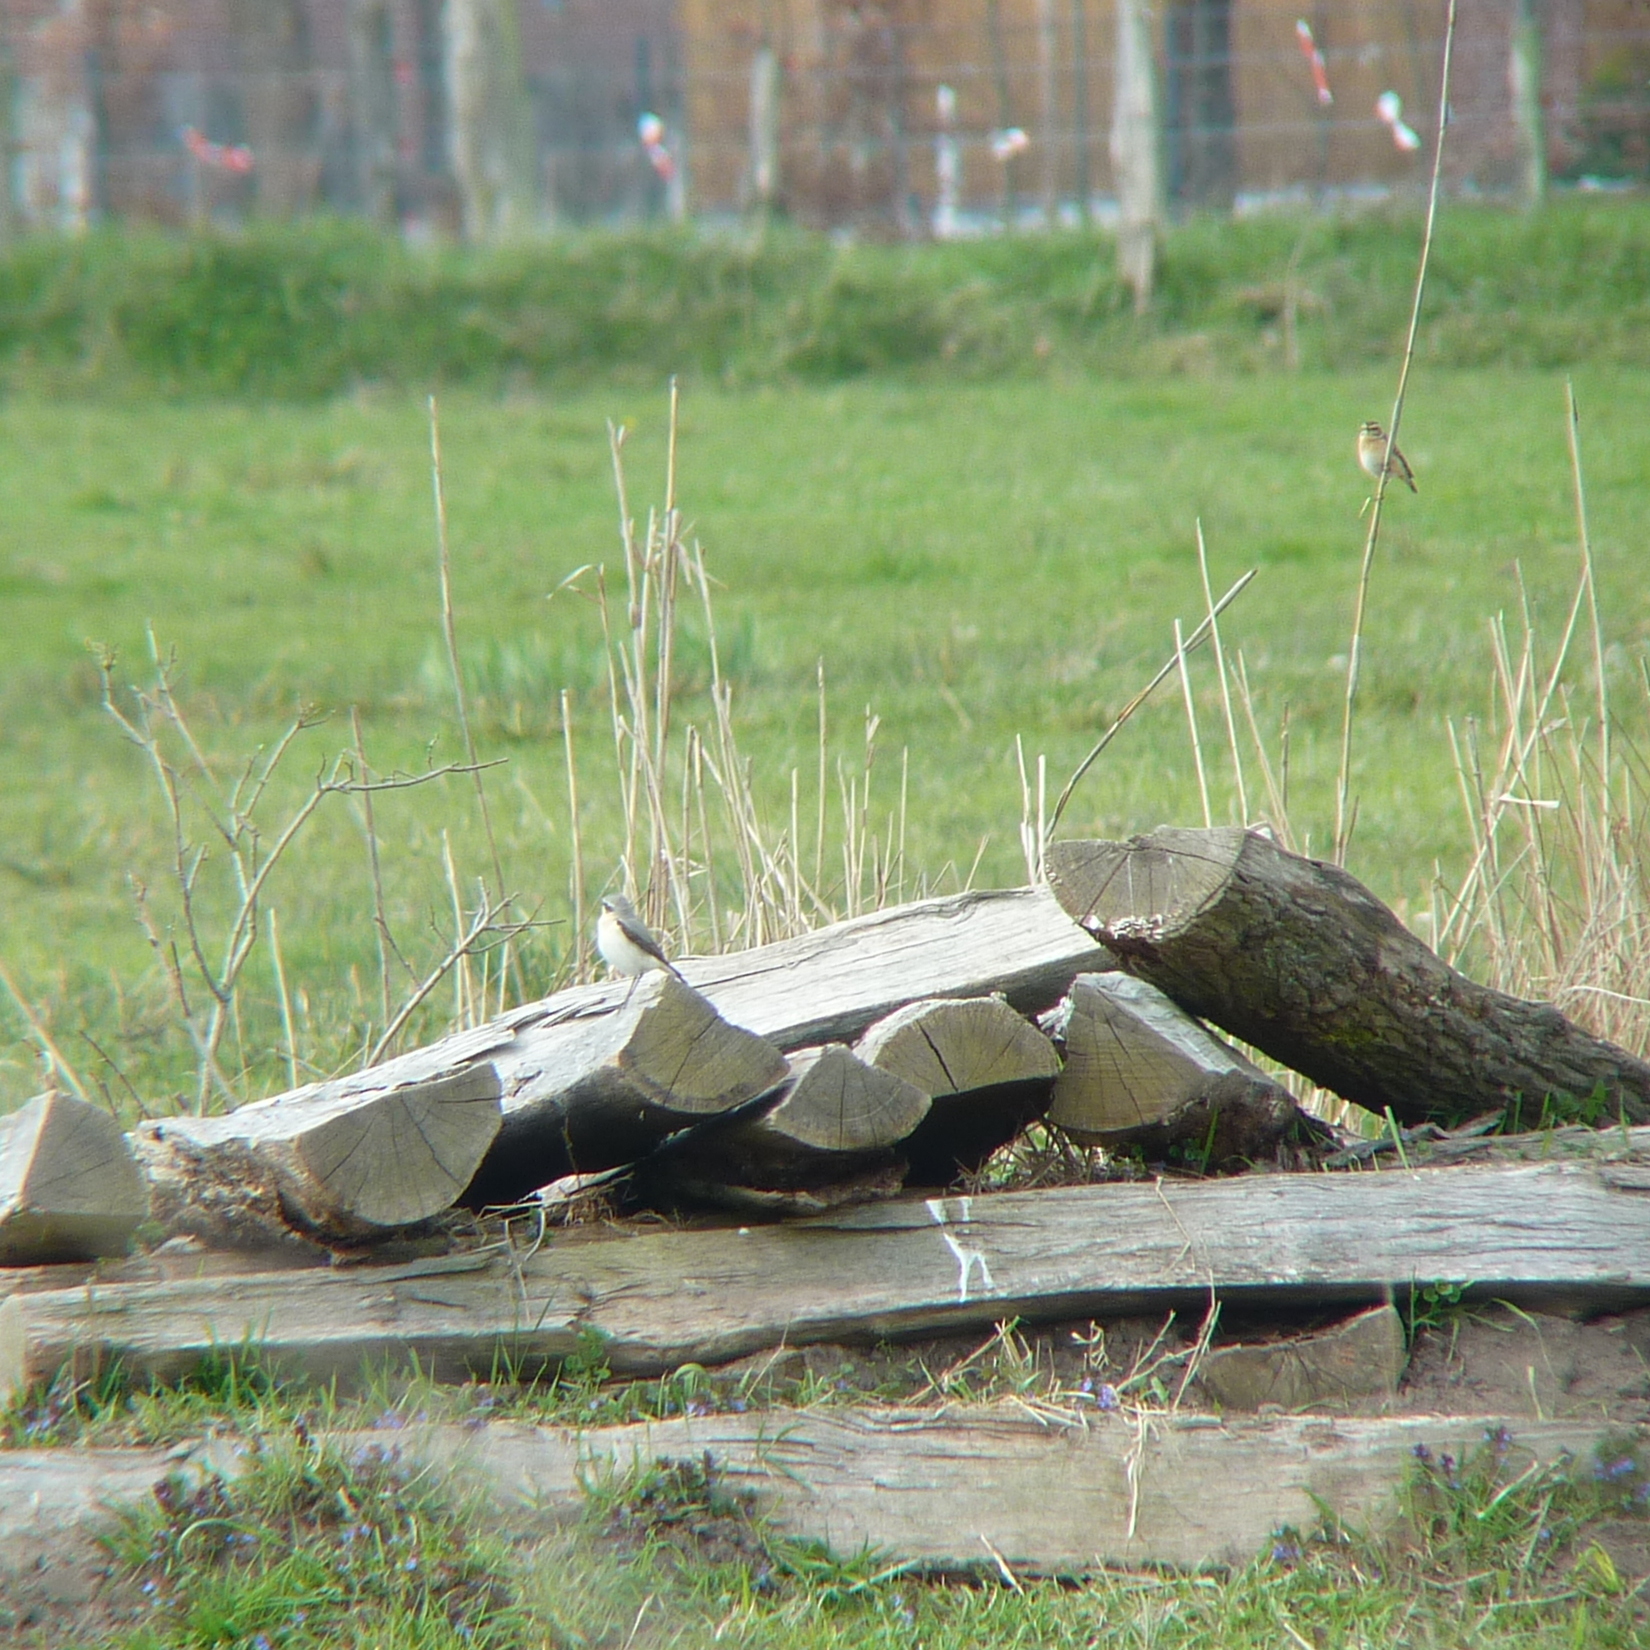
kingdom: Animalia
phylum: Chordata
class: Aves
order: Passeriformes
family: Muscicapidae
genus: Oenanthe
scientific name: Oenanthe oenanthe
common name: Northern wheatear
